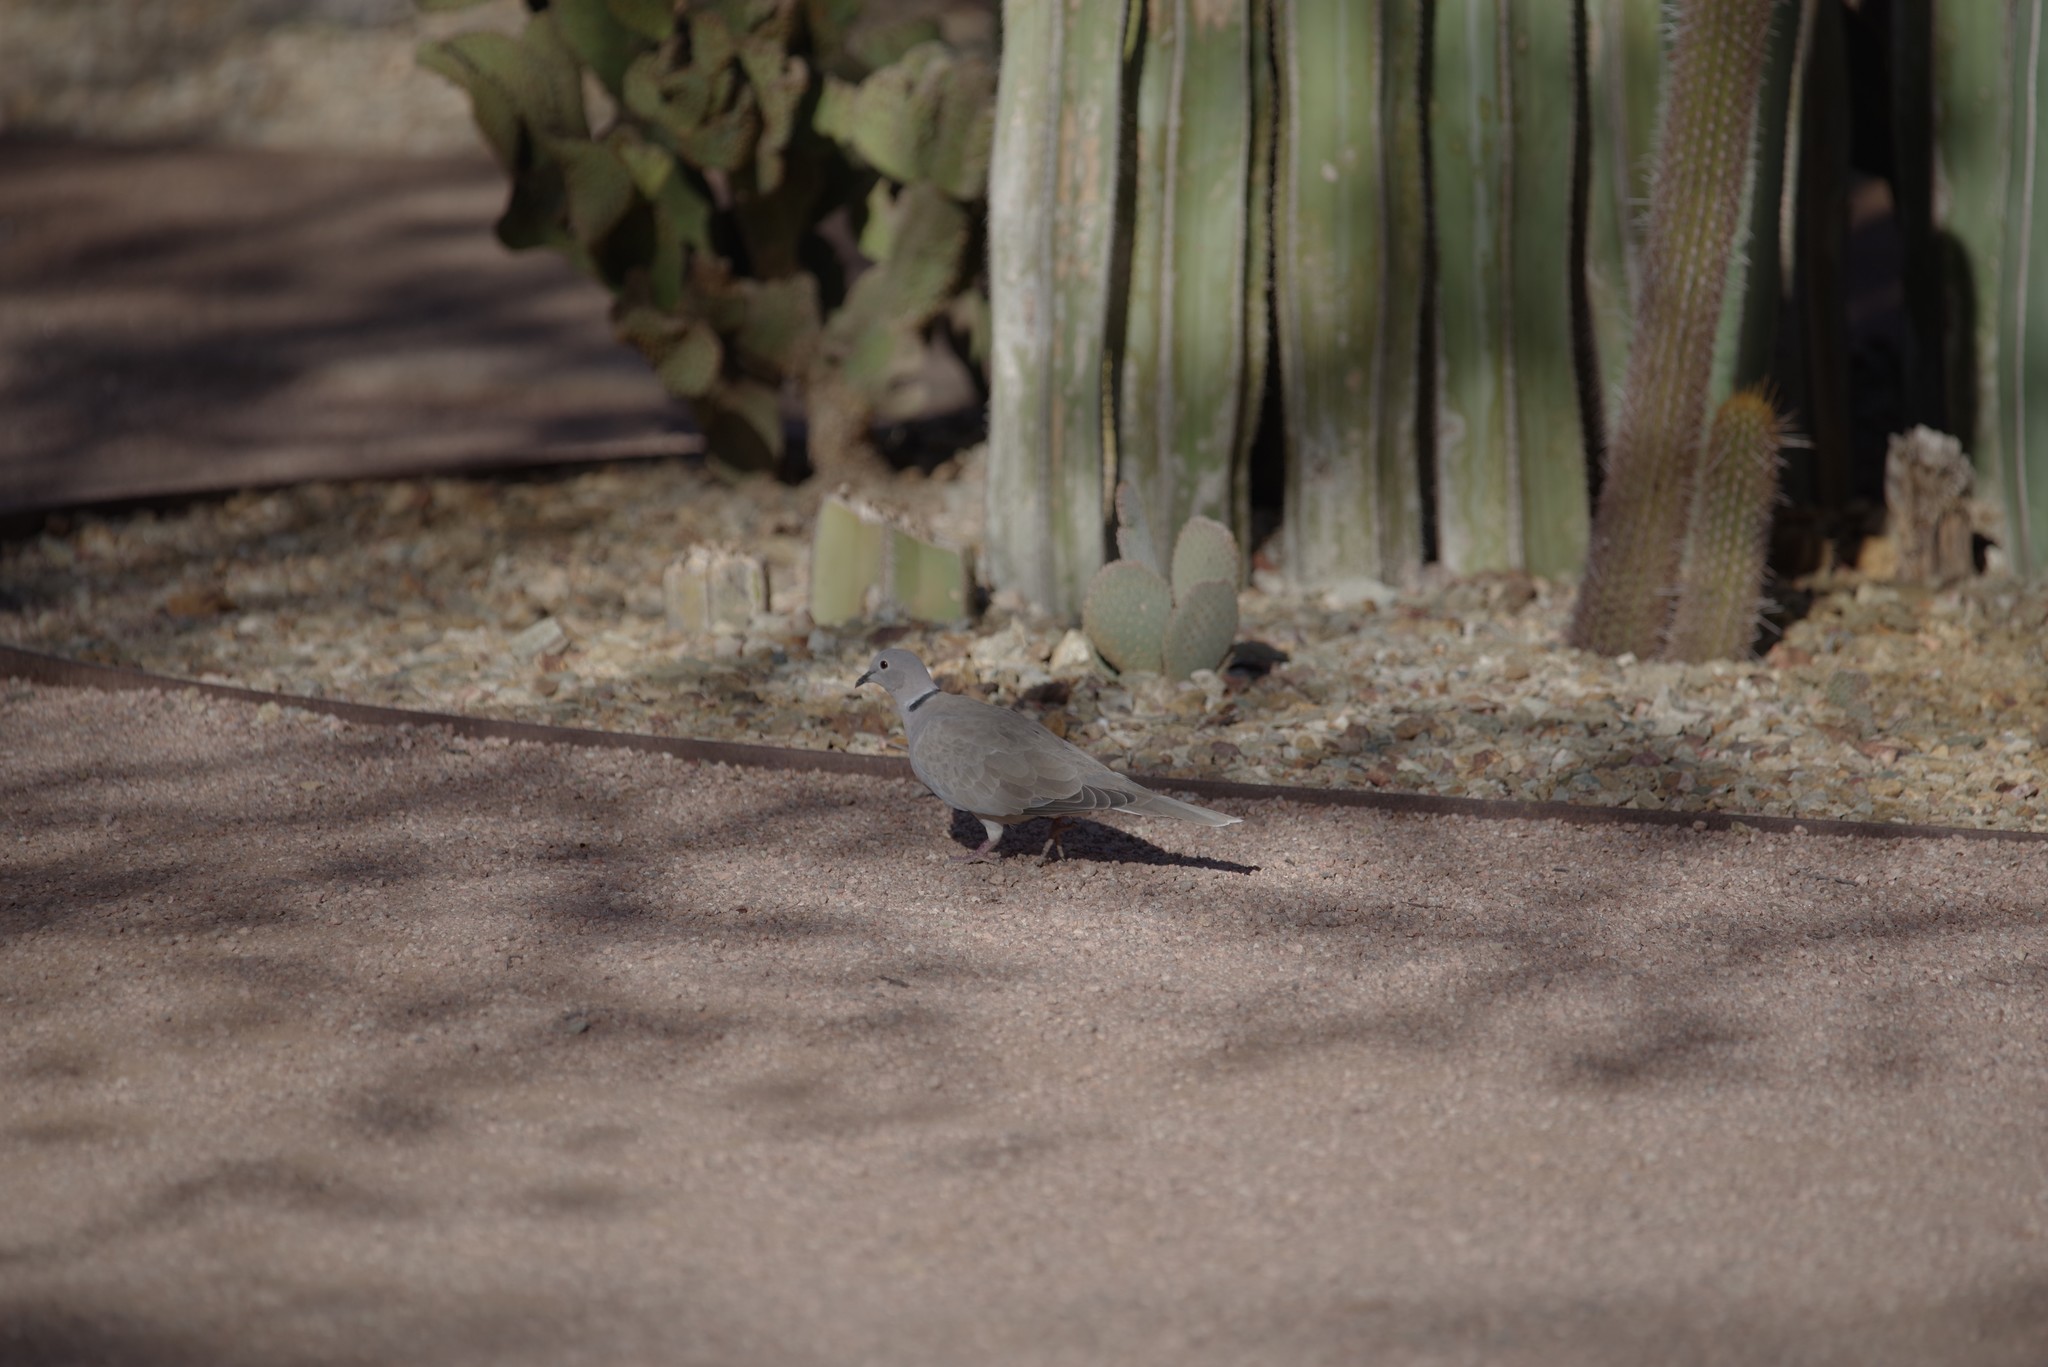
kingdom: Animalia
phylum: Chordata
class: Aves
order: Columbiformes
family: Columbidae
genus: Streptopelia
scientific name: Streptopelia decaocto
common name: Eurasian collared dove
